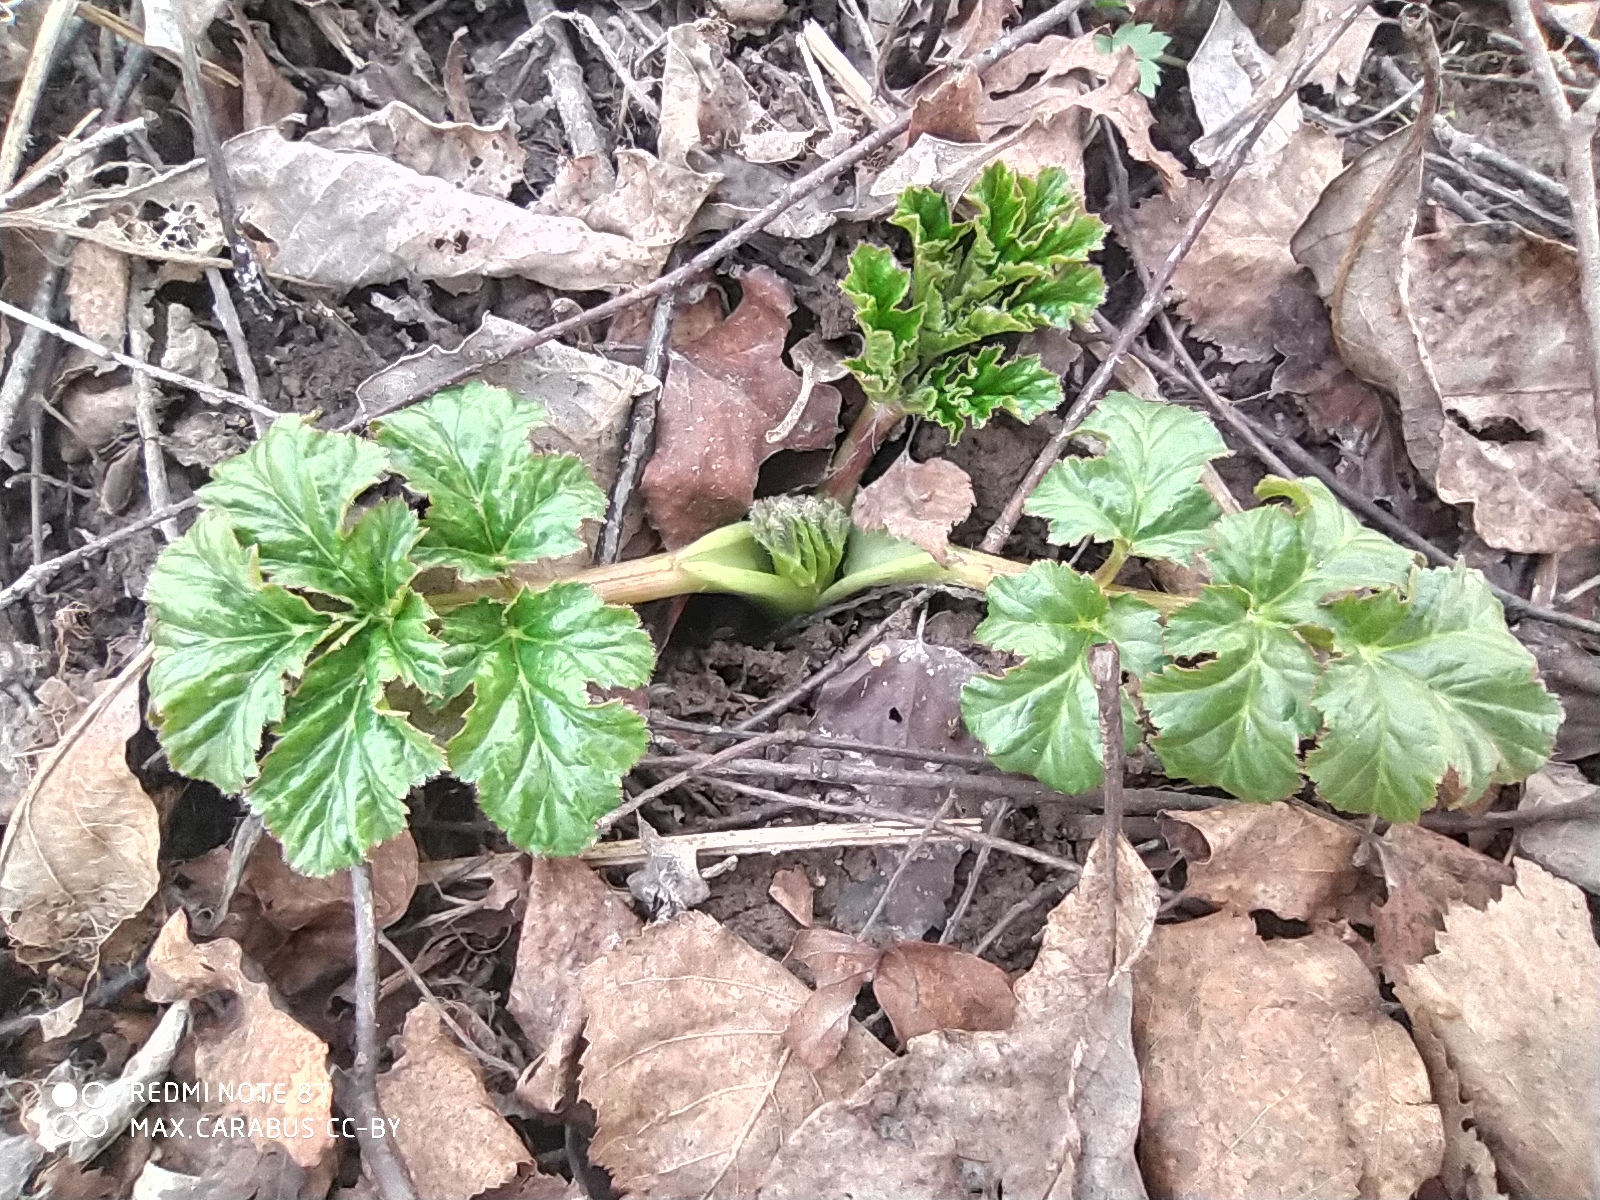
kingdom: Plantae
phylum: Tracheophyta
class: Magnoliopsida
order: Apiales
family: Apiaceae
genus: Heracleum
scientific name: Heracleum sosnowskyi
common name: Sosnowsky's hogweed
